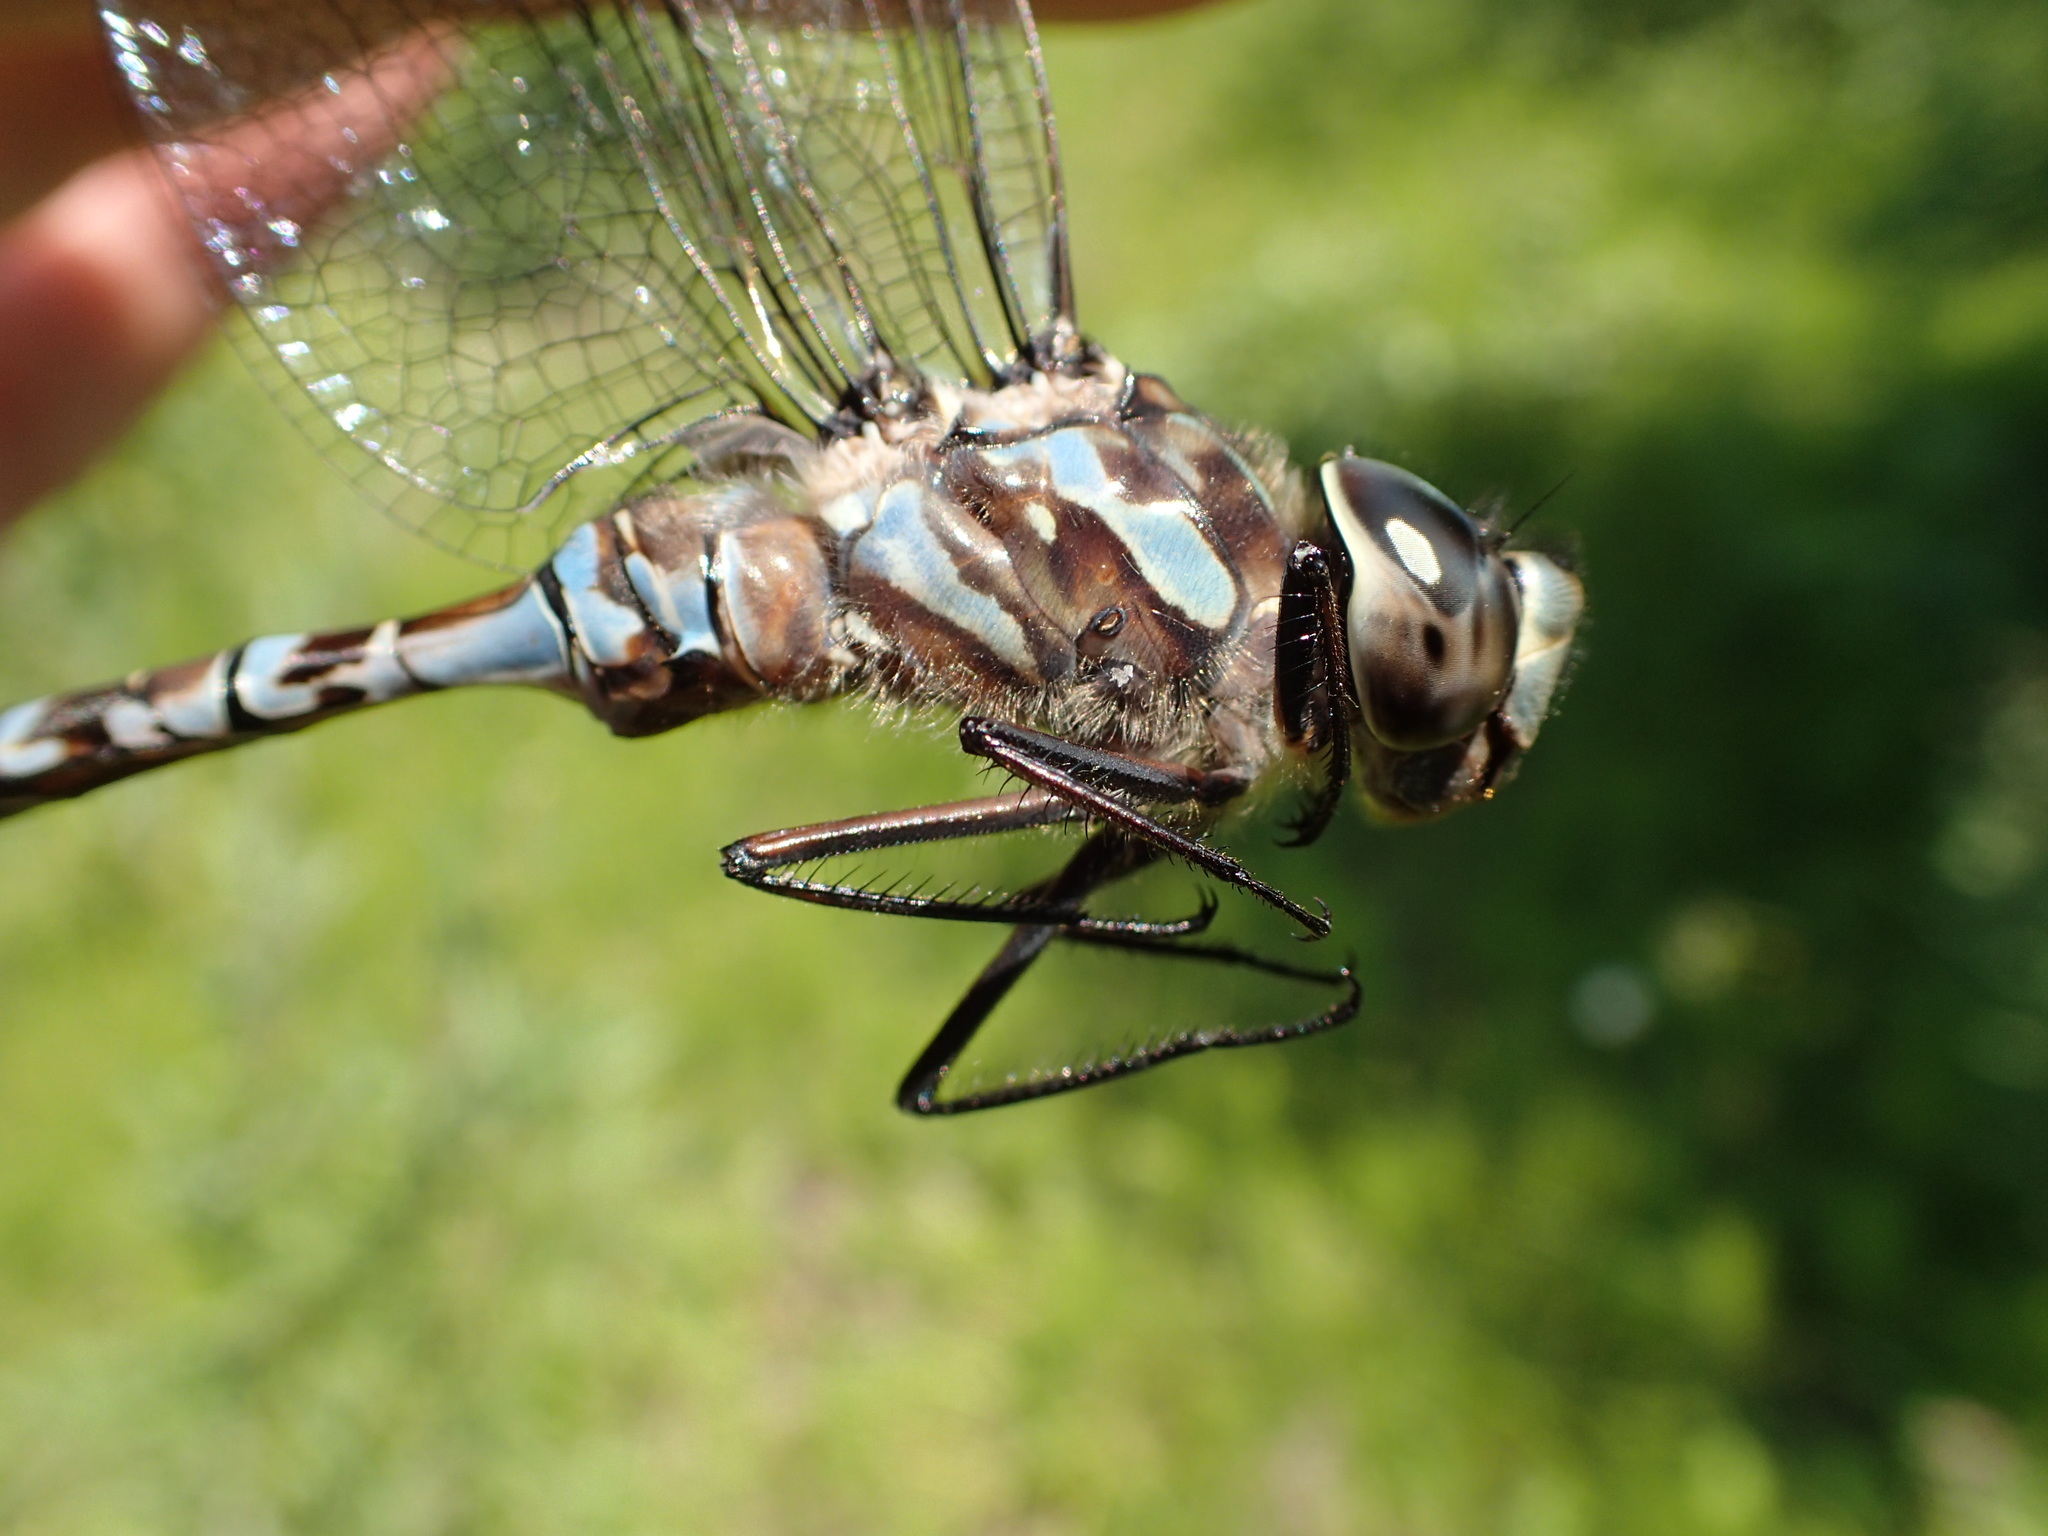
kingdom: Animalia
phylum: Arthropoda
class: Insecta
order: Odonata
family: Aeshnidae
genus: Aeshna
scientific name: Aeshna canadensis
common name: Canada darner
